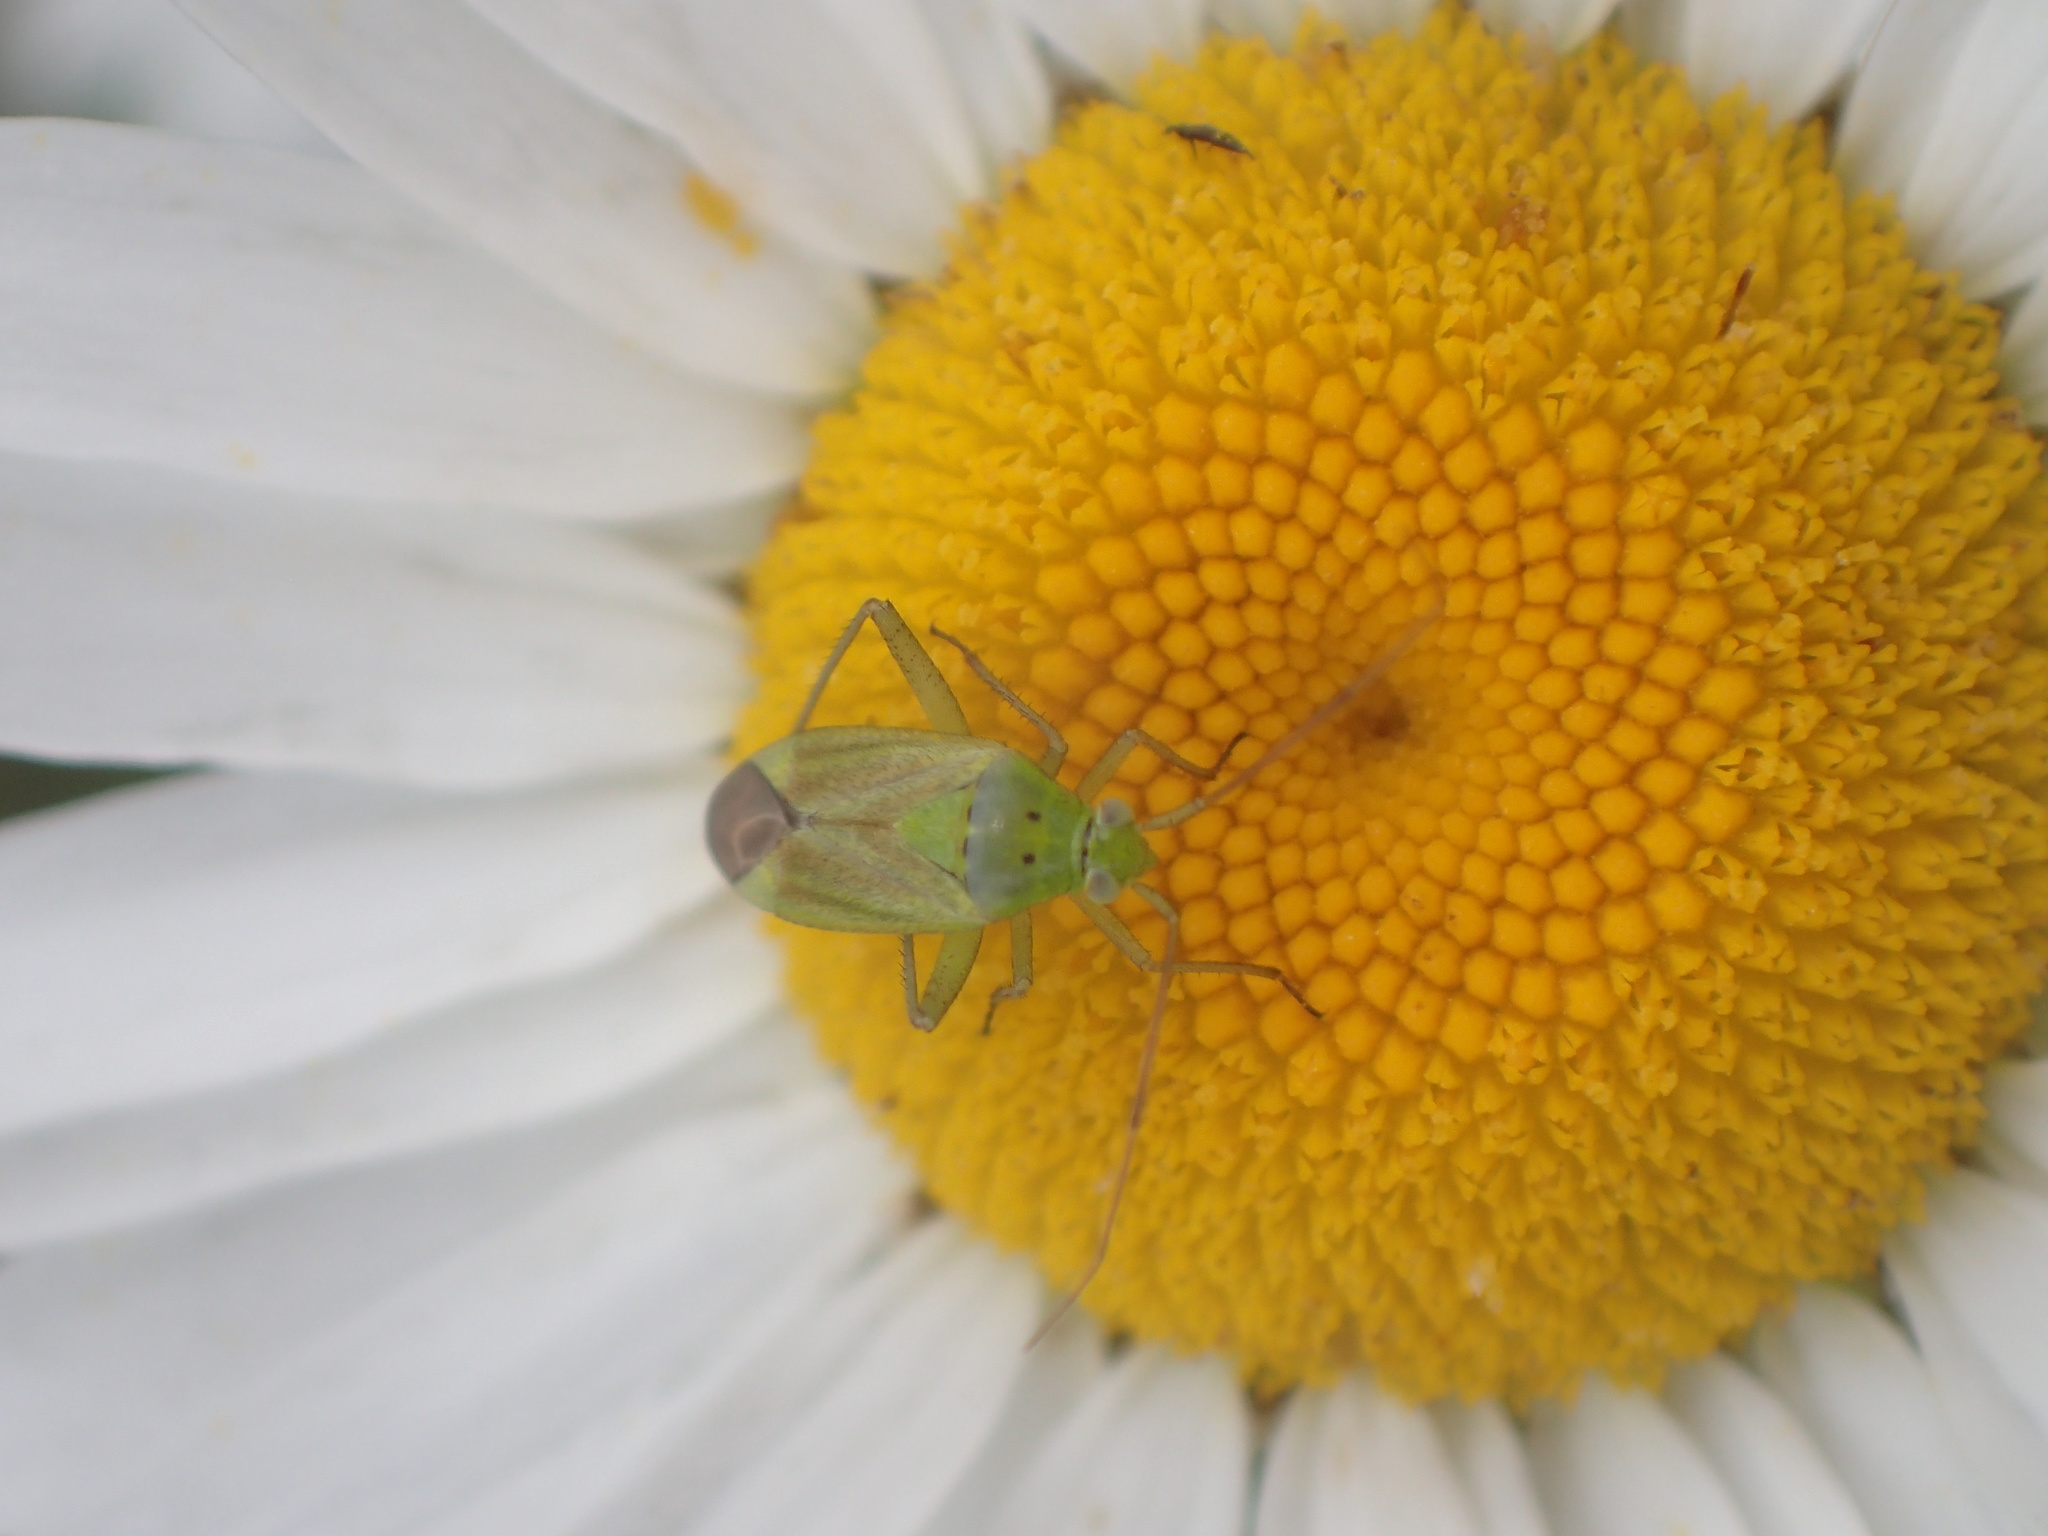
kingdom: Animalia
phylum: Arthropoda
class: Insecta
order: Hemiptera
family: Miridae
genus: Closterotomus
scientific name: Closterotomus norvegicus
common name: Plant bug
